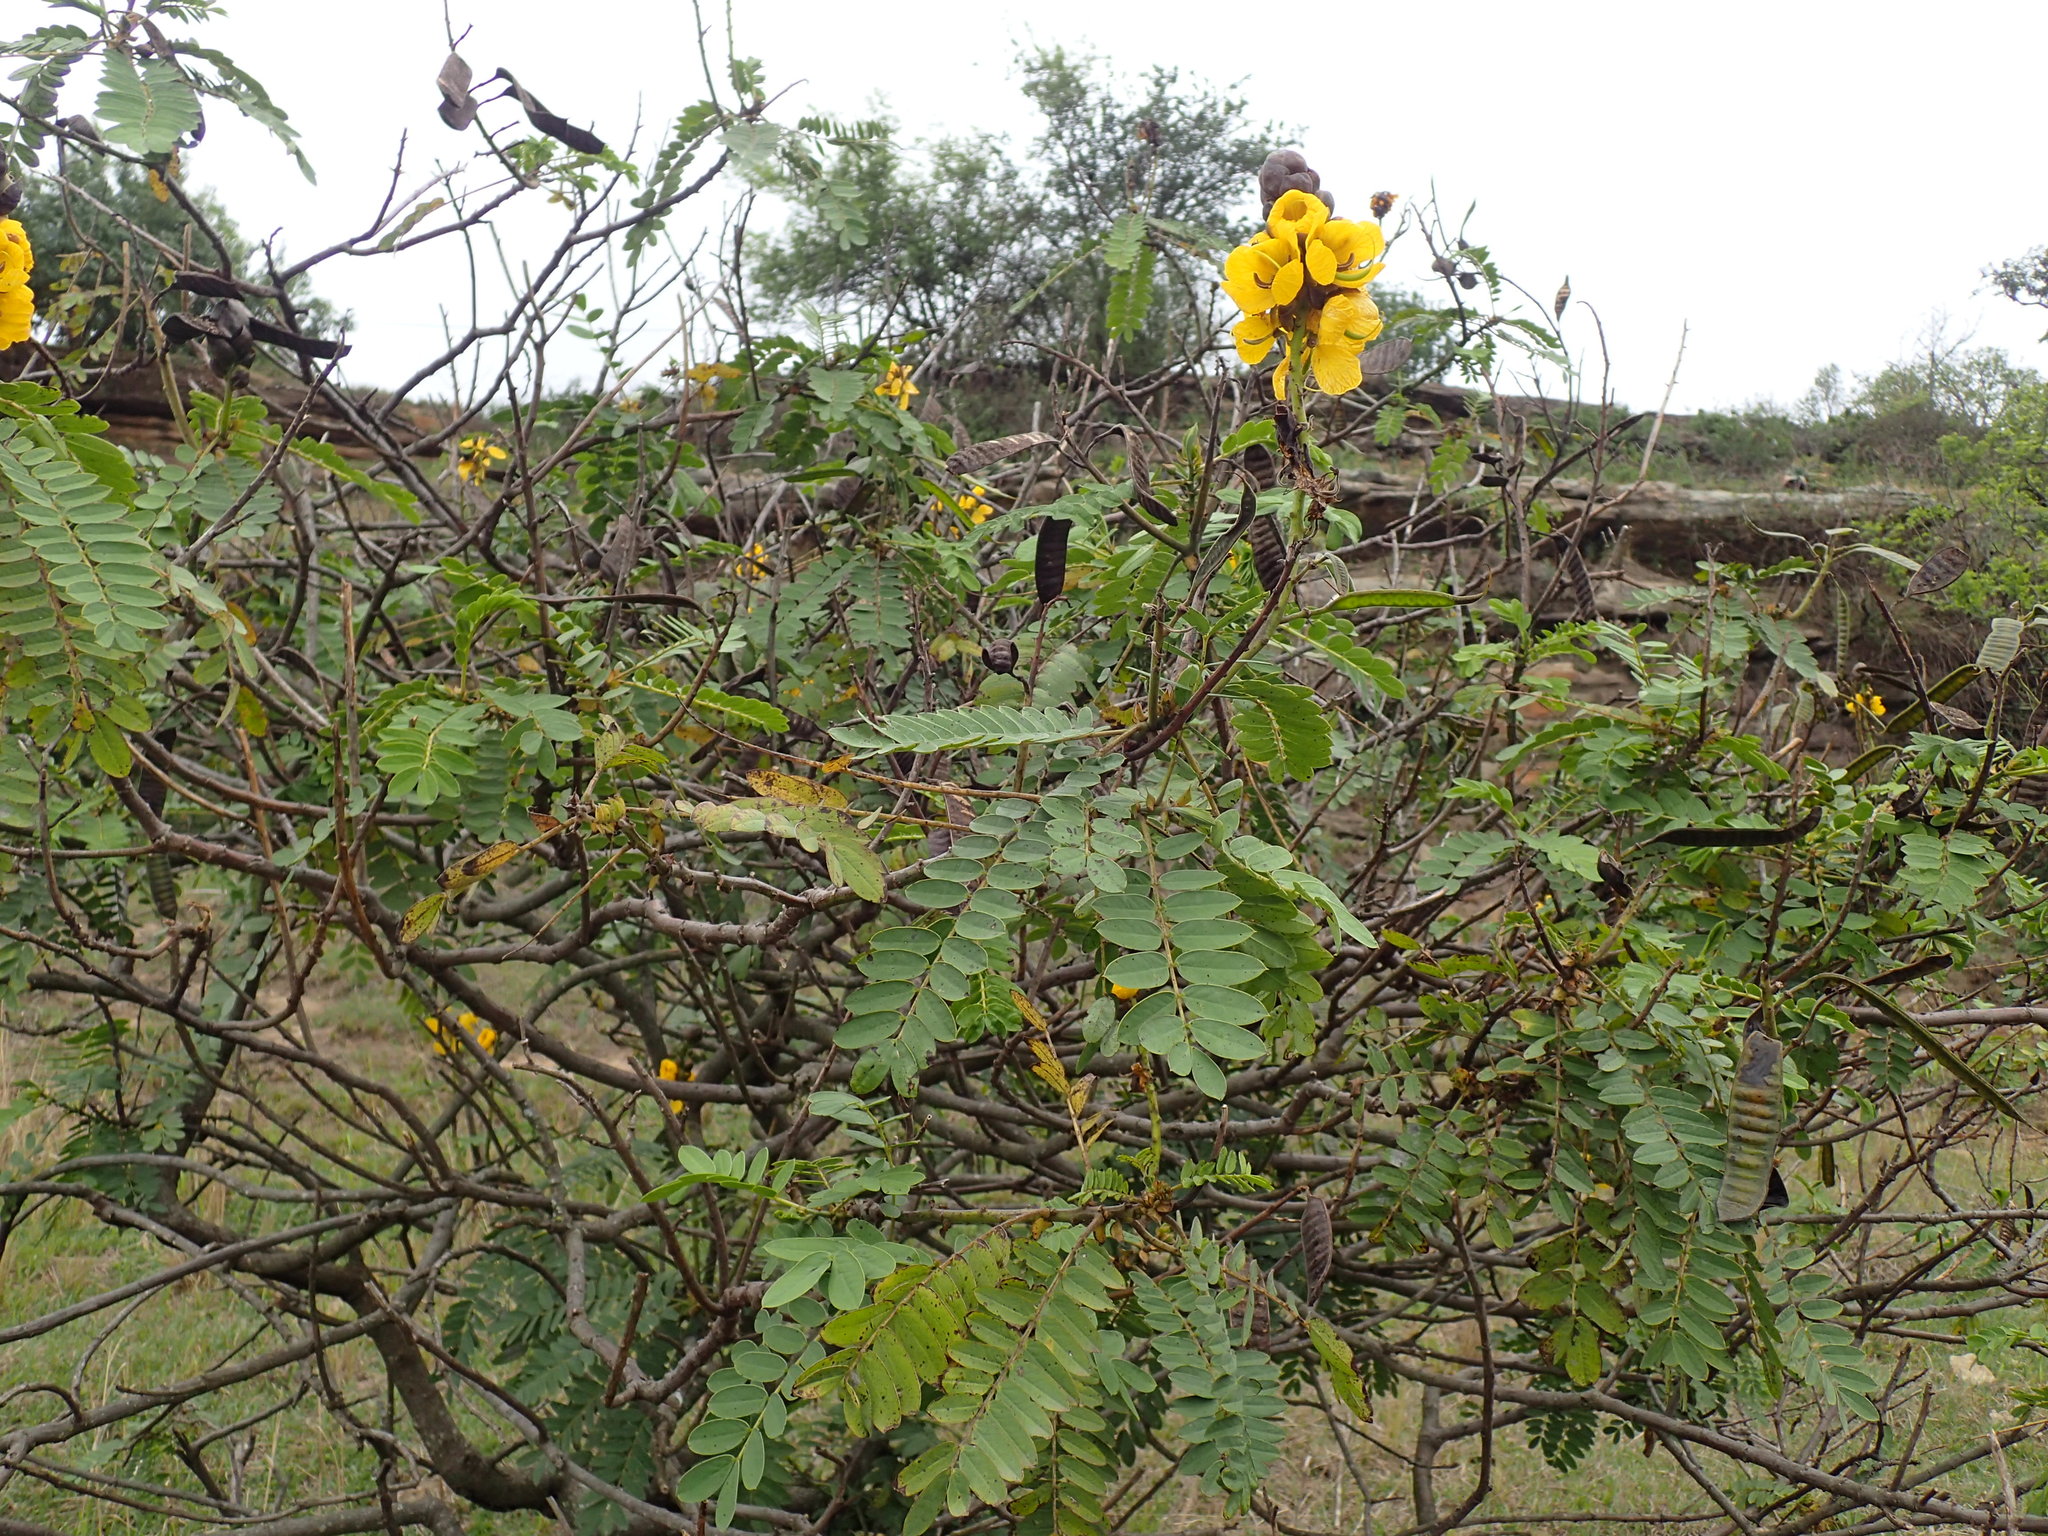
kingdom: Plantae
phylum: Tracheophyta
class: Magnoliopsida
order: Fabales
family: Fabaceae
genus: Senna
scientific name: Senna didymobotrya
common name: African senna
